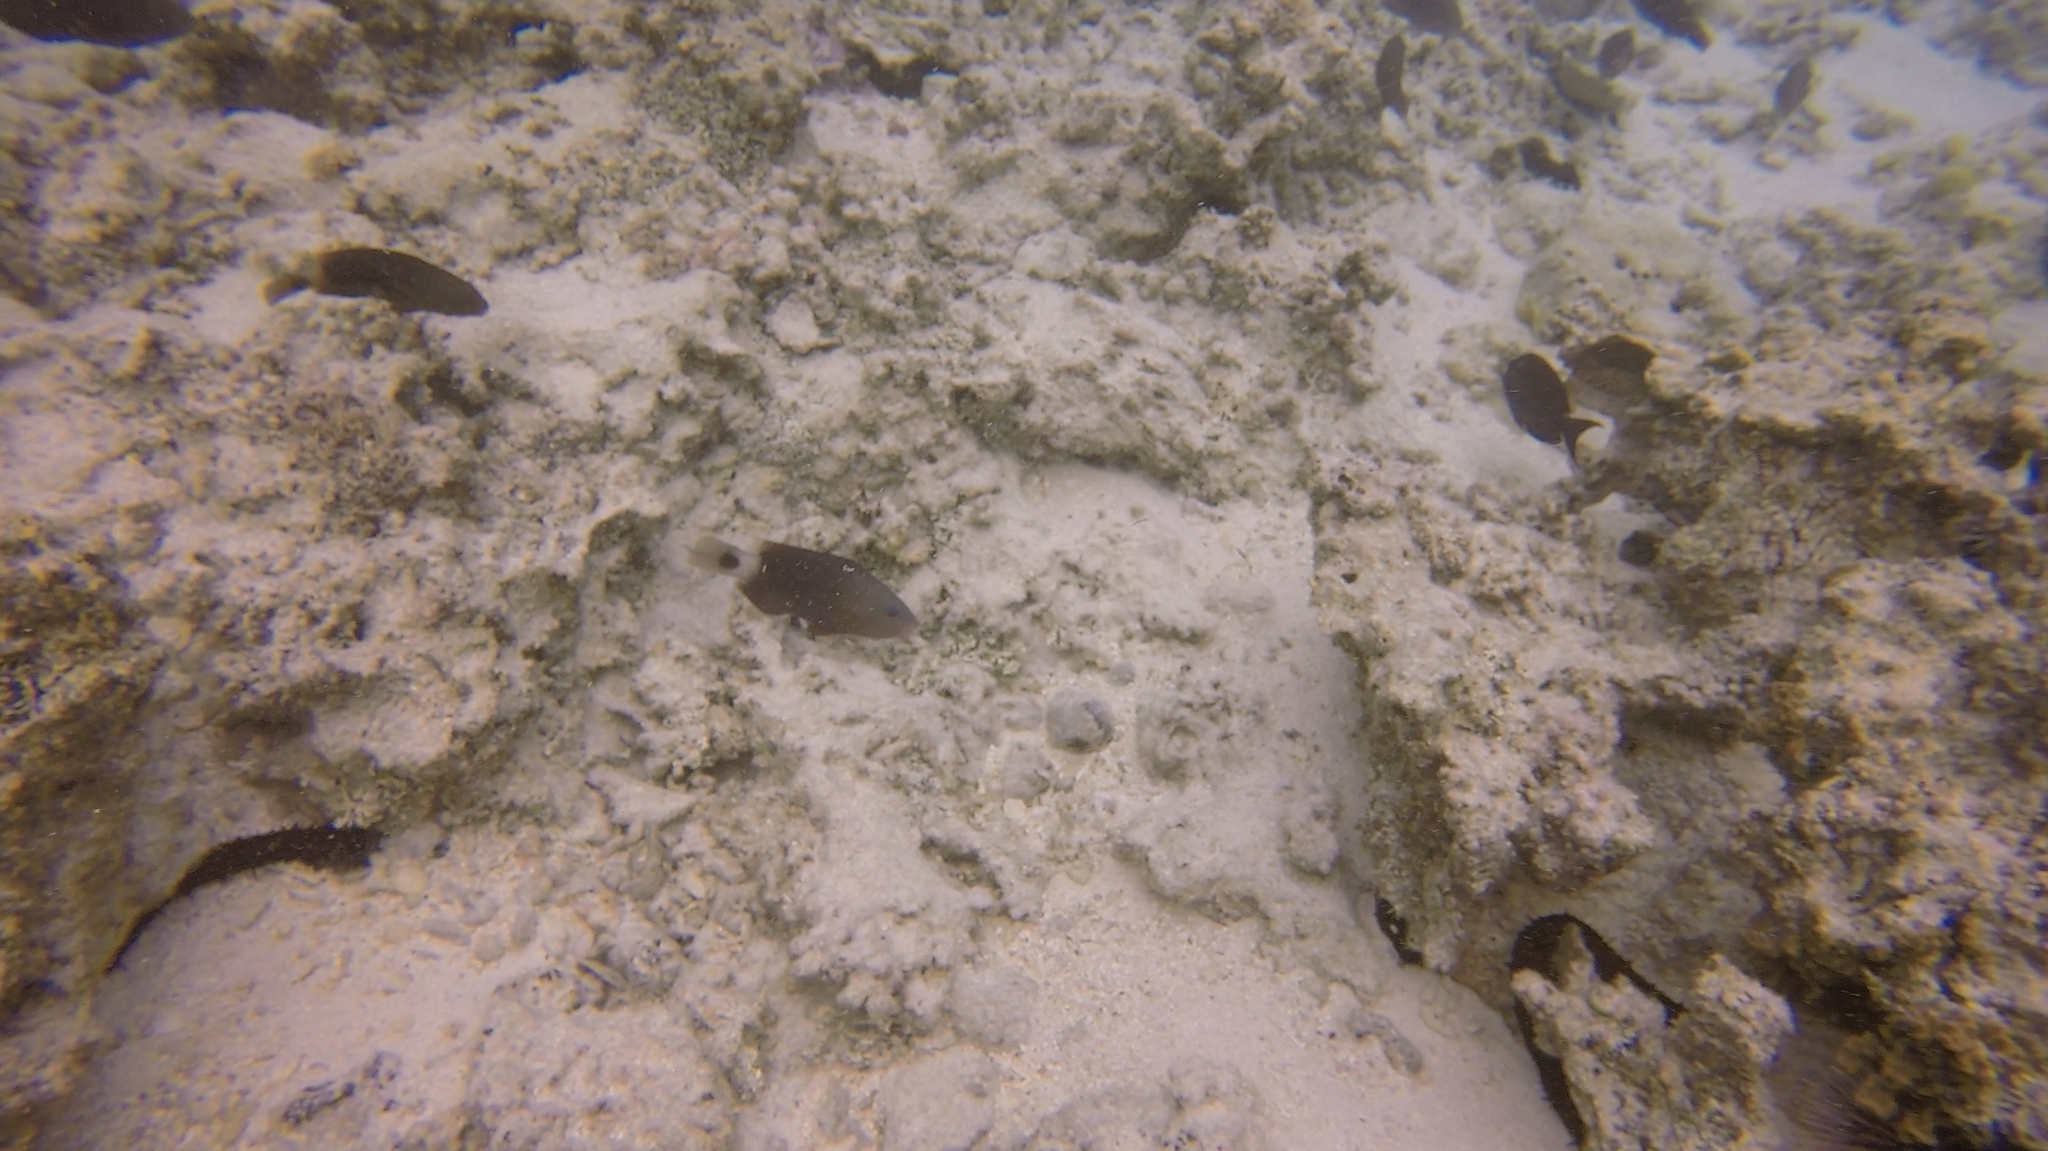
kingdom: Animalia
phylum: Chordata
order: Perciformes
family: Scaridae
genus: Chlorurus
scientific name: Chlorurus spilurus
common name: Bullethead parrotfish
